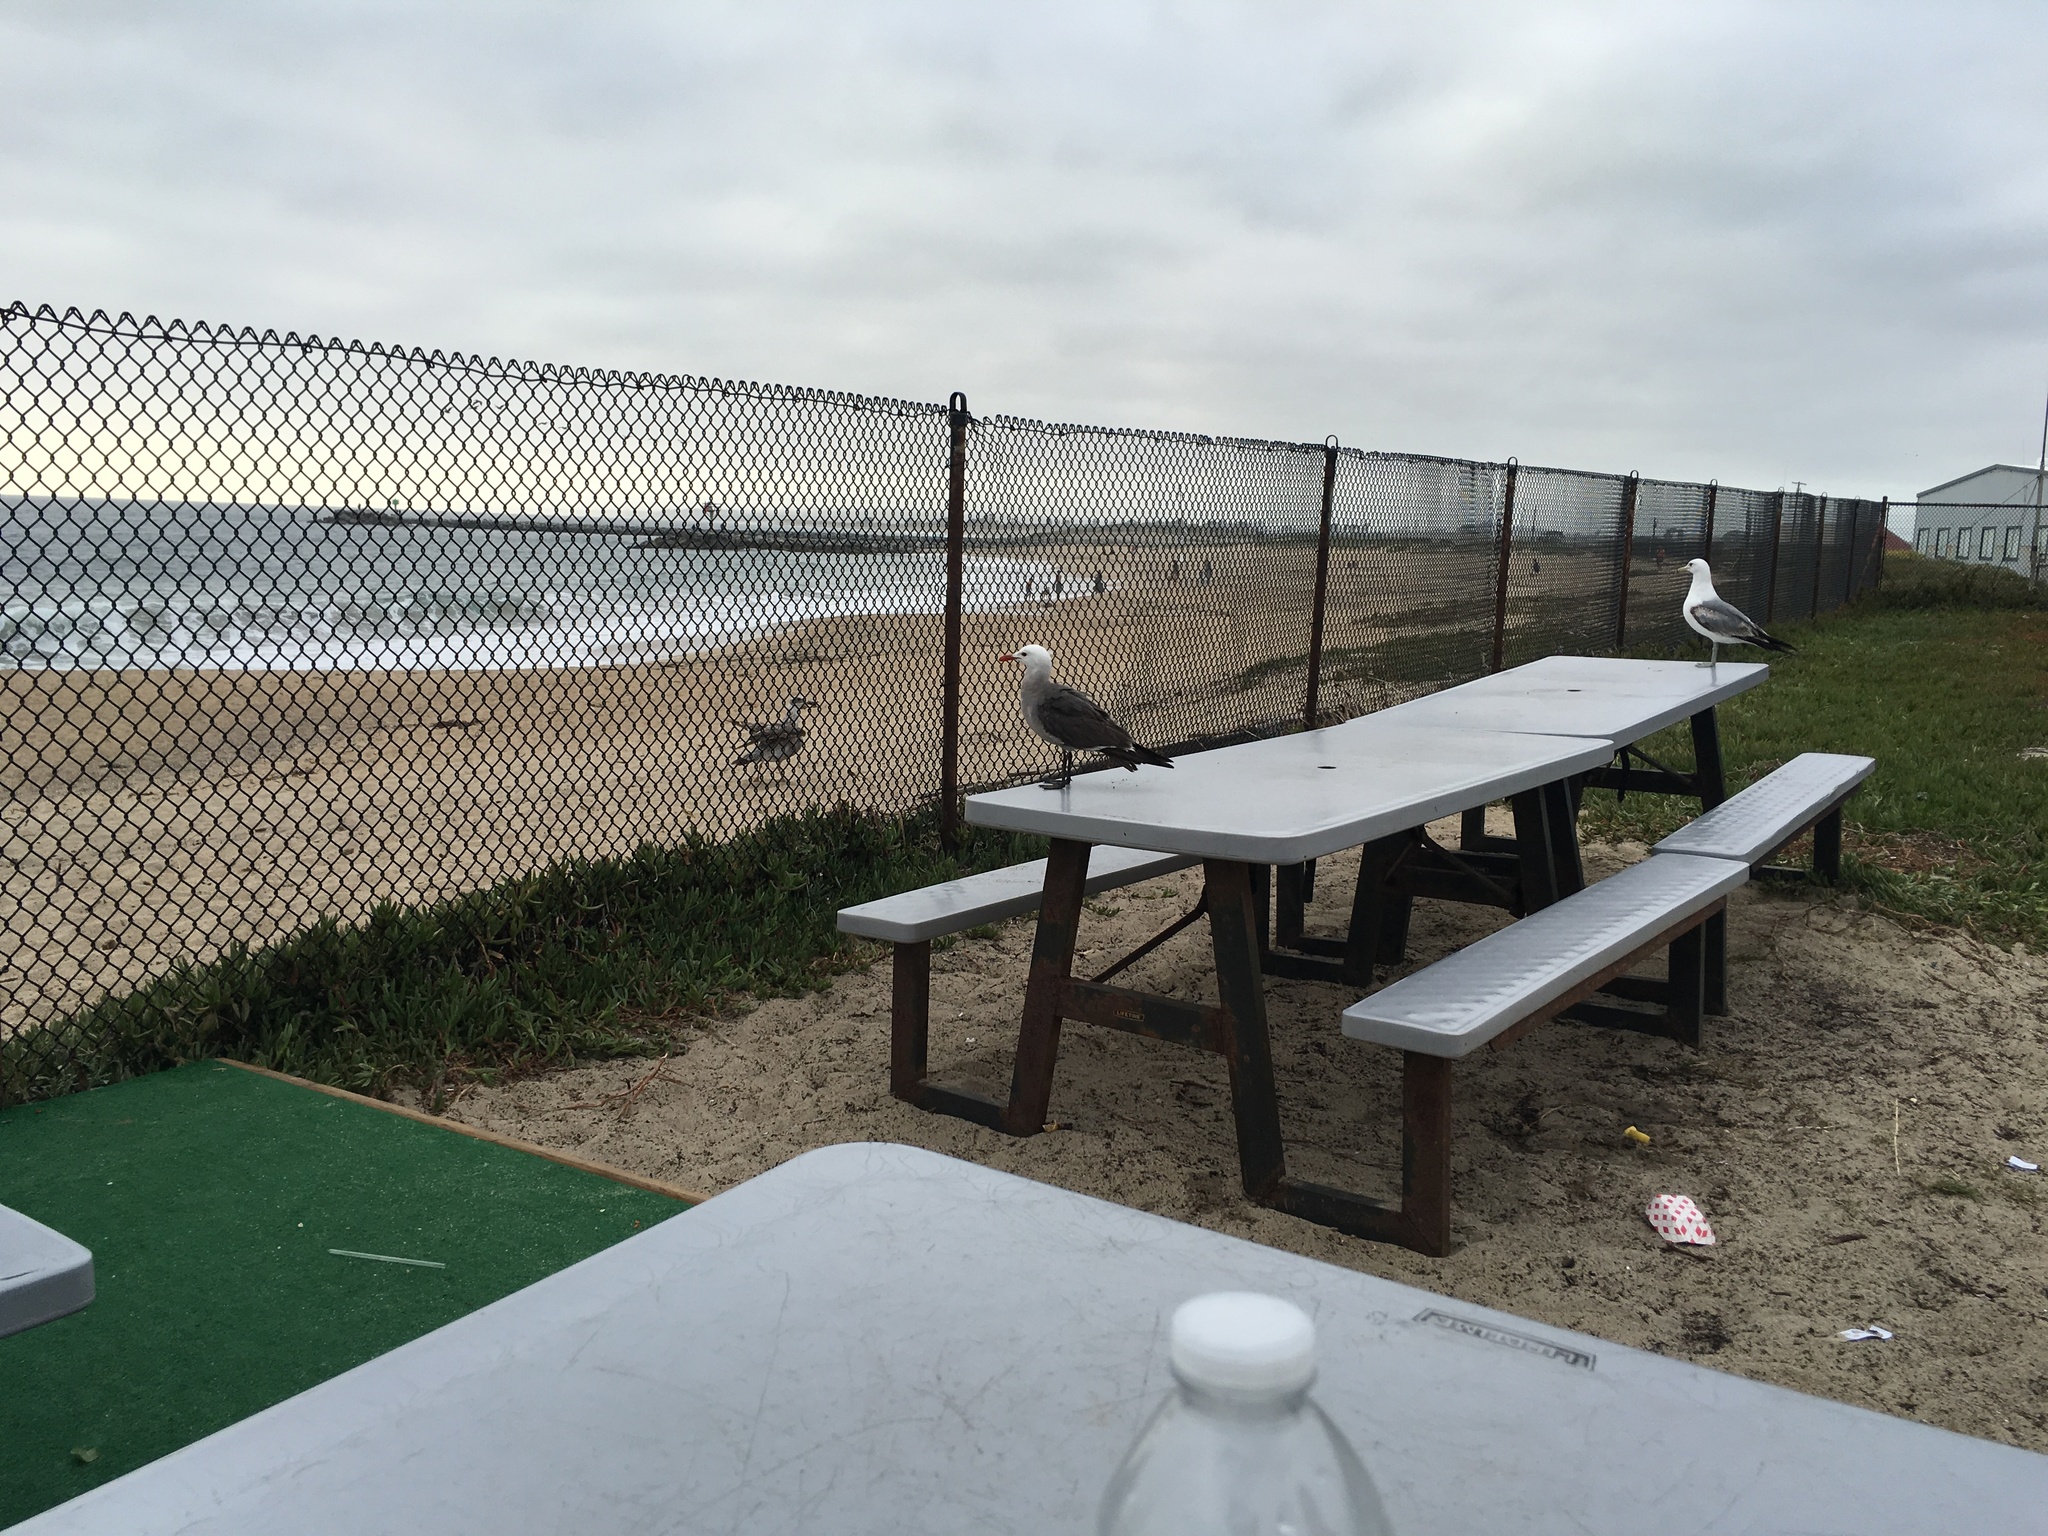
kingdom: Animalia
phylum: Chordata
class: Aves
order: Charadriiformes
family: Laridae
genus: Larus
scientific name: Larus heermanni
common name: Heermann's gull
